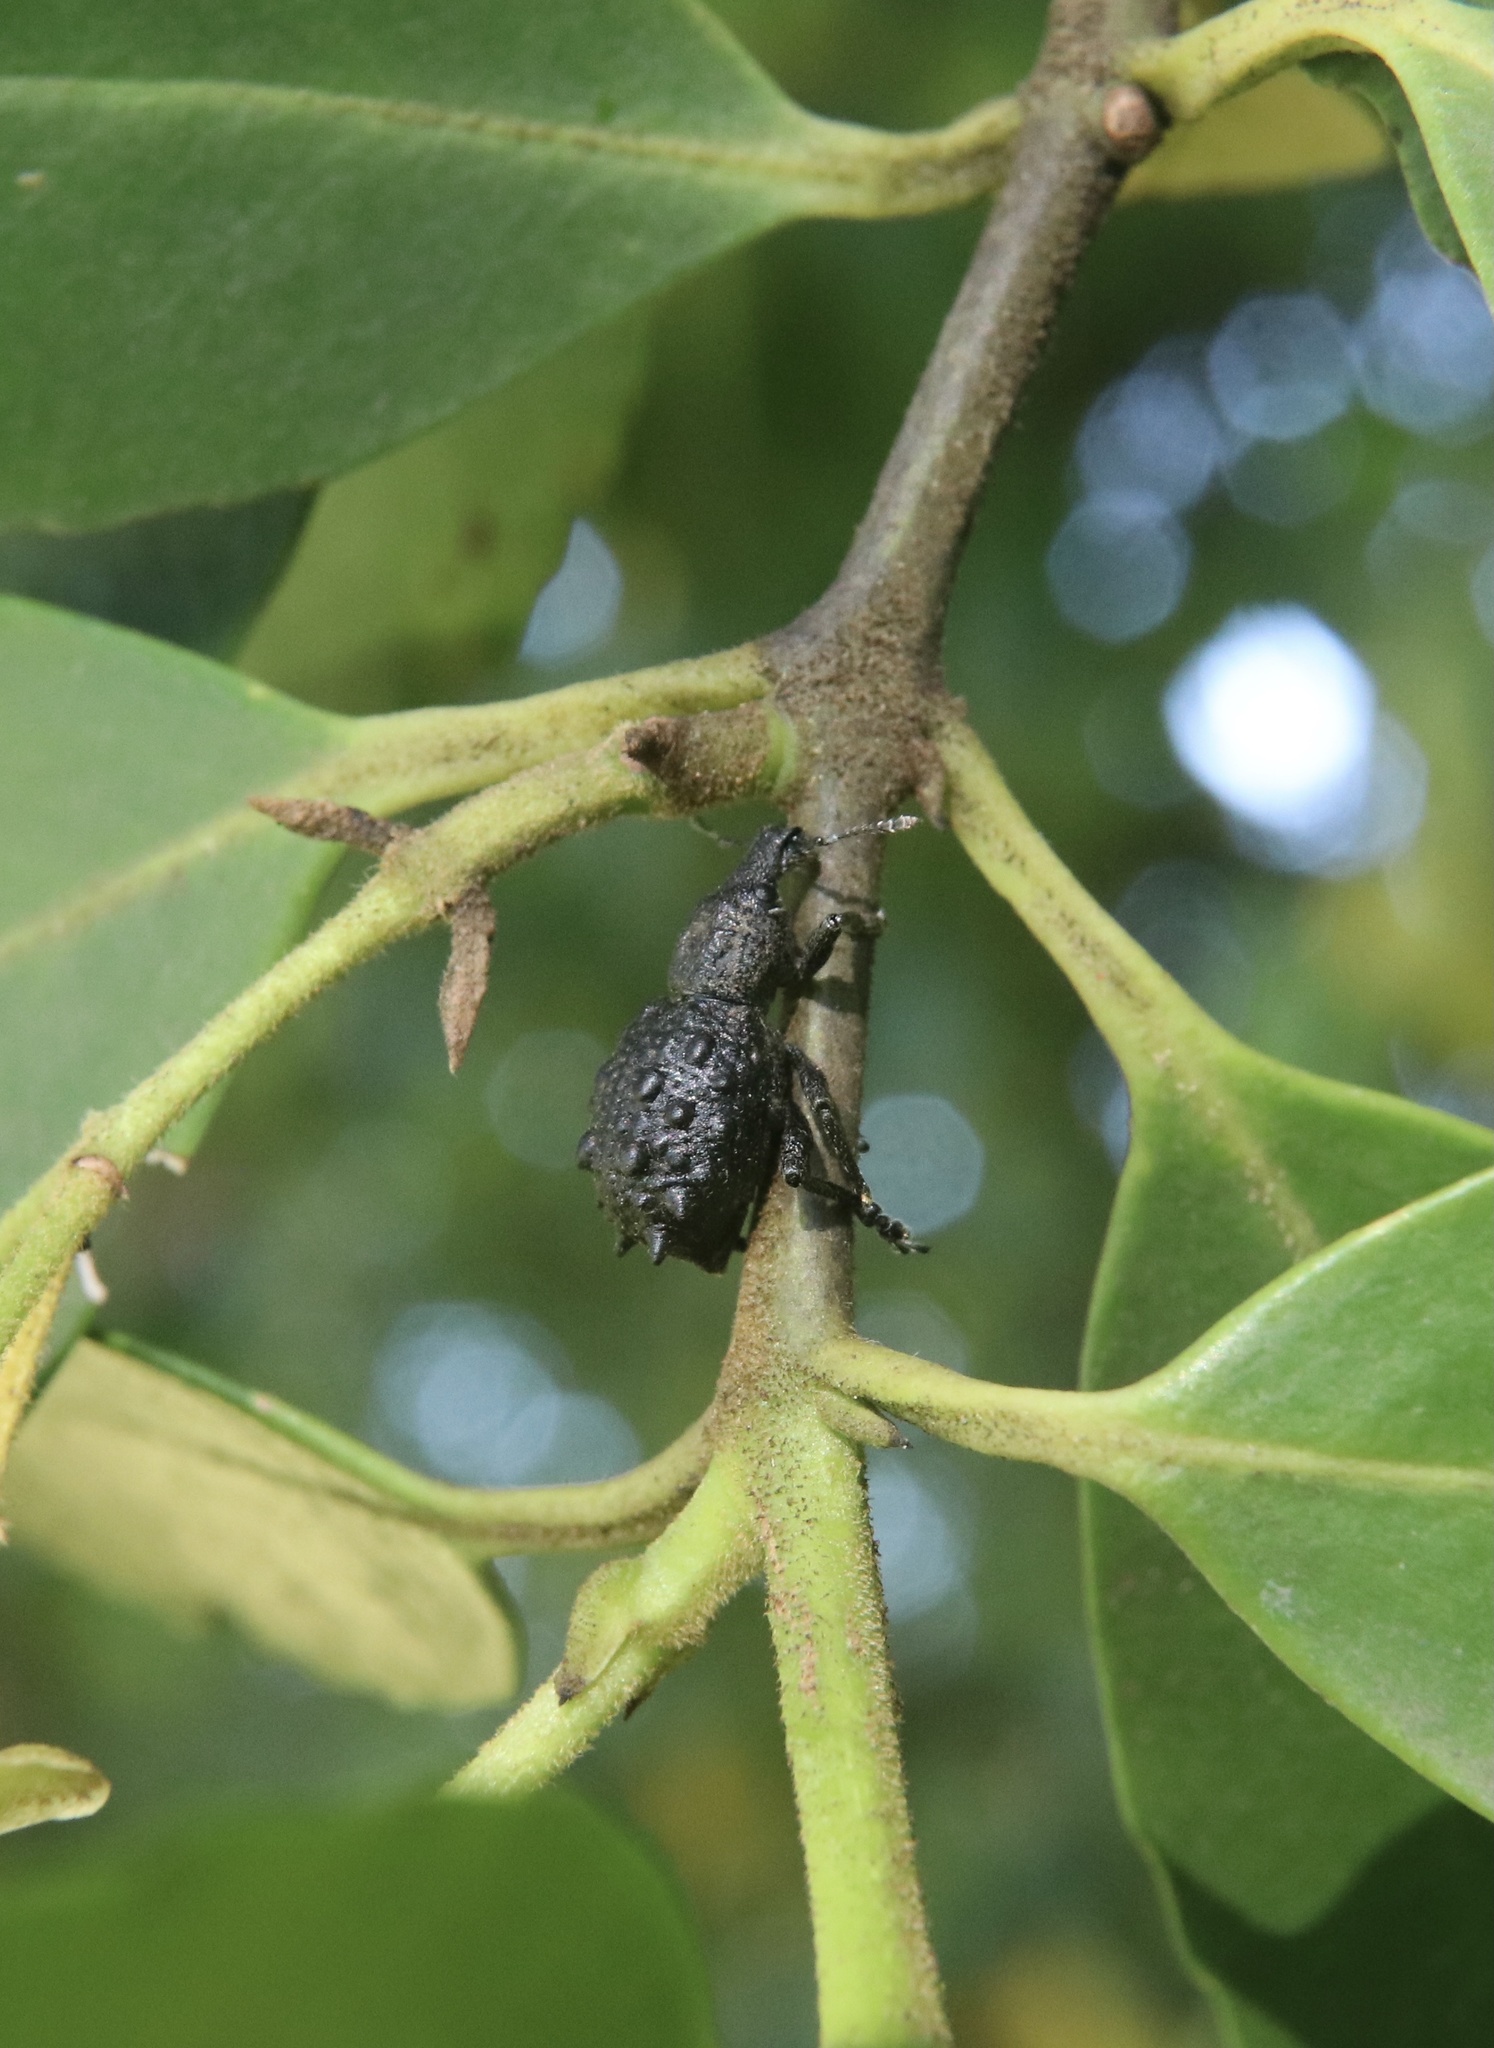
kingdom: Animalia
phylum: Arthropoda
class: Insecta
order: Coleoptera
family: Curculionidae
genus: Megalometis
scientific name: Megalometis spiniferus
